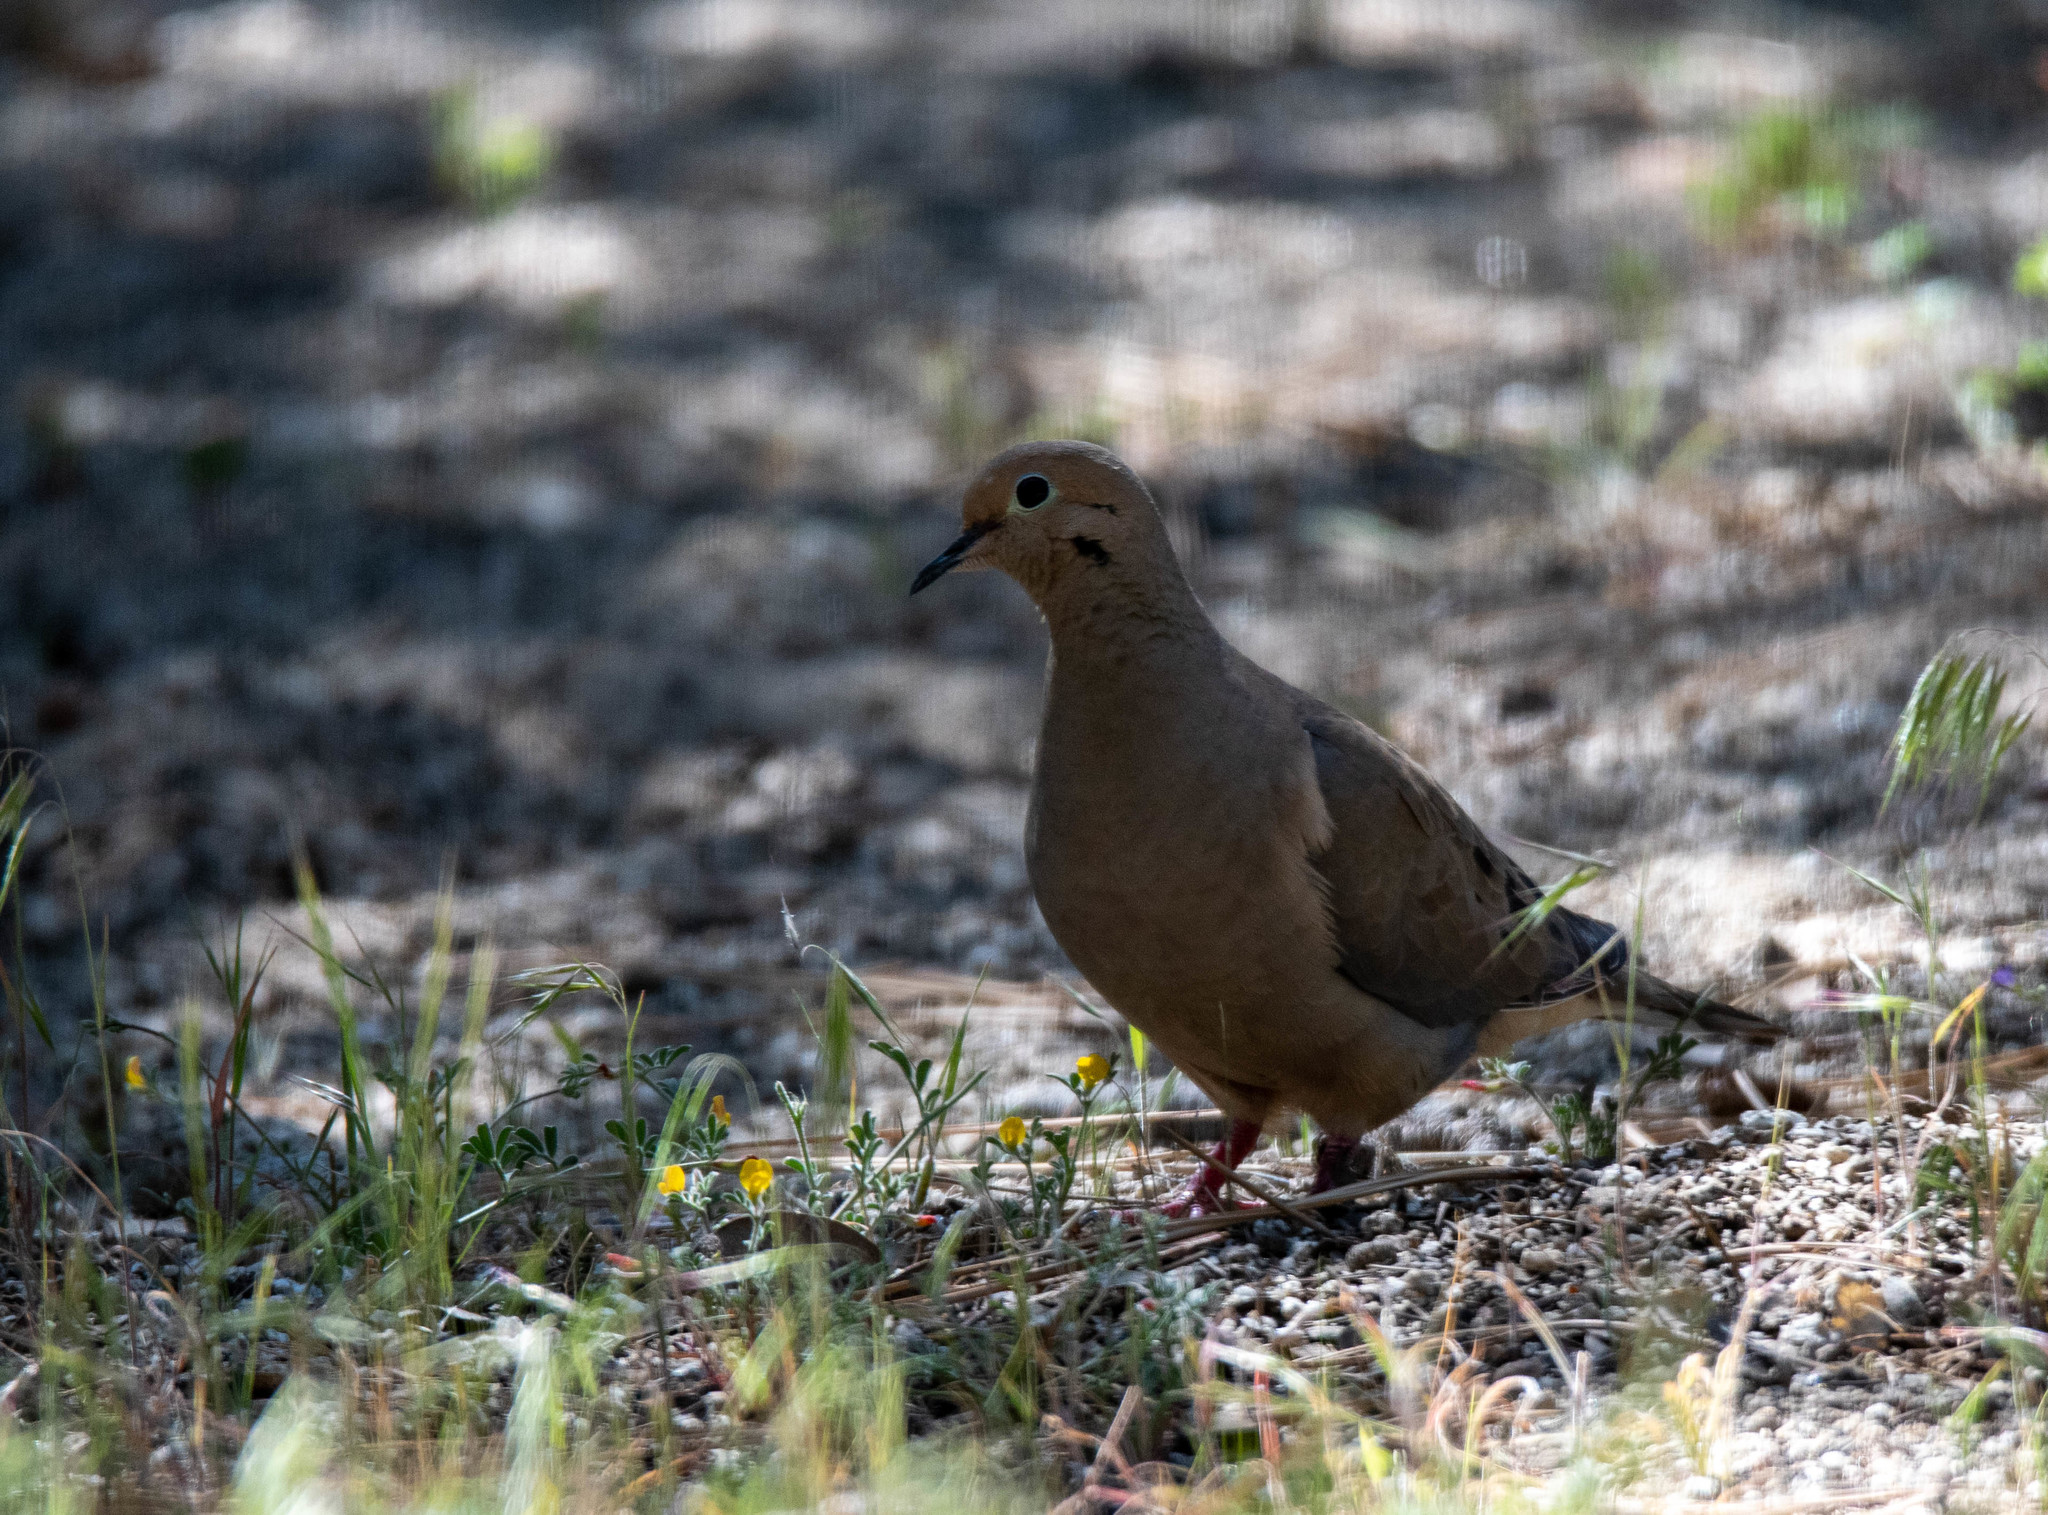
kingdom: Animalia
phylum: Chordata
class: Aves
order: Columbiformes
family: Columbidae
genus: Zenaida
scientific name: Zenaida macroura
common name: Mourning dove
